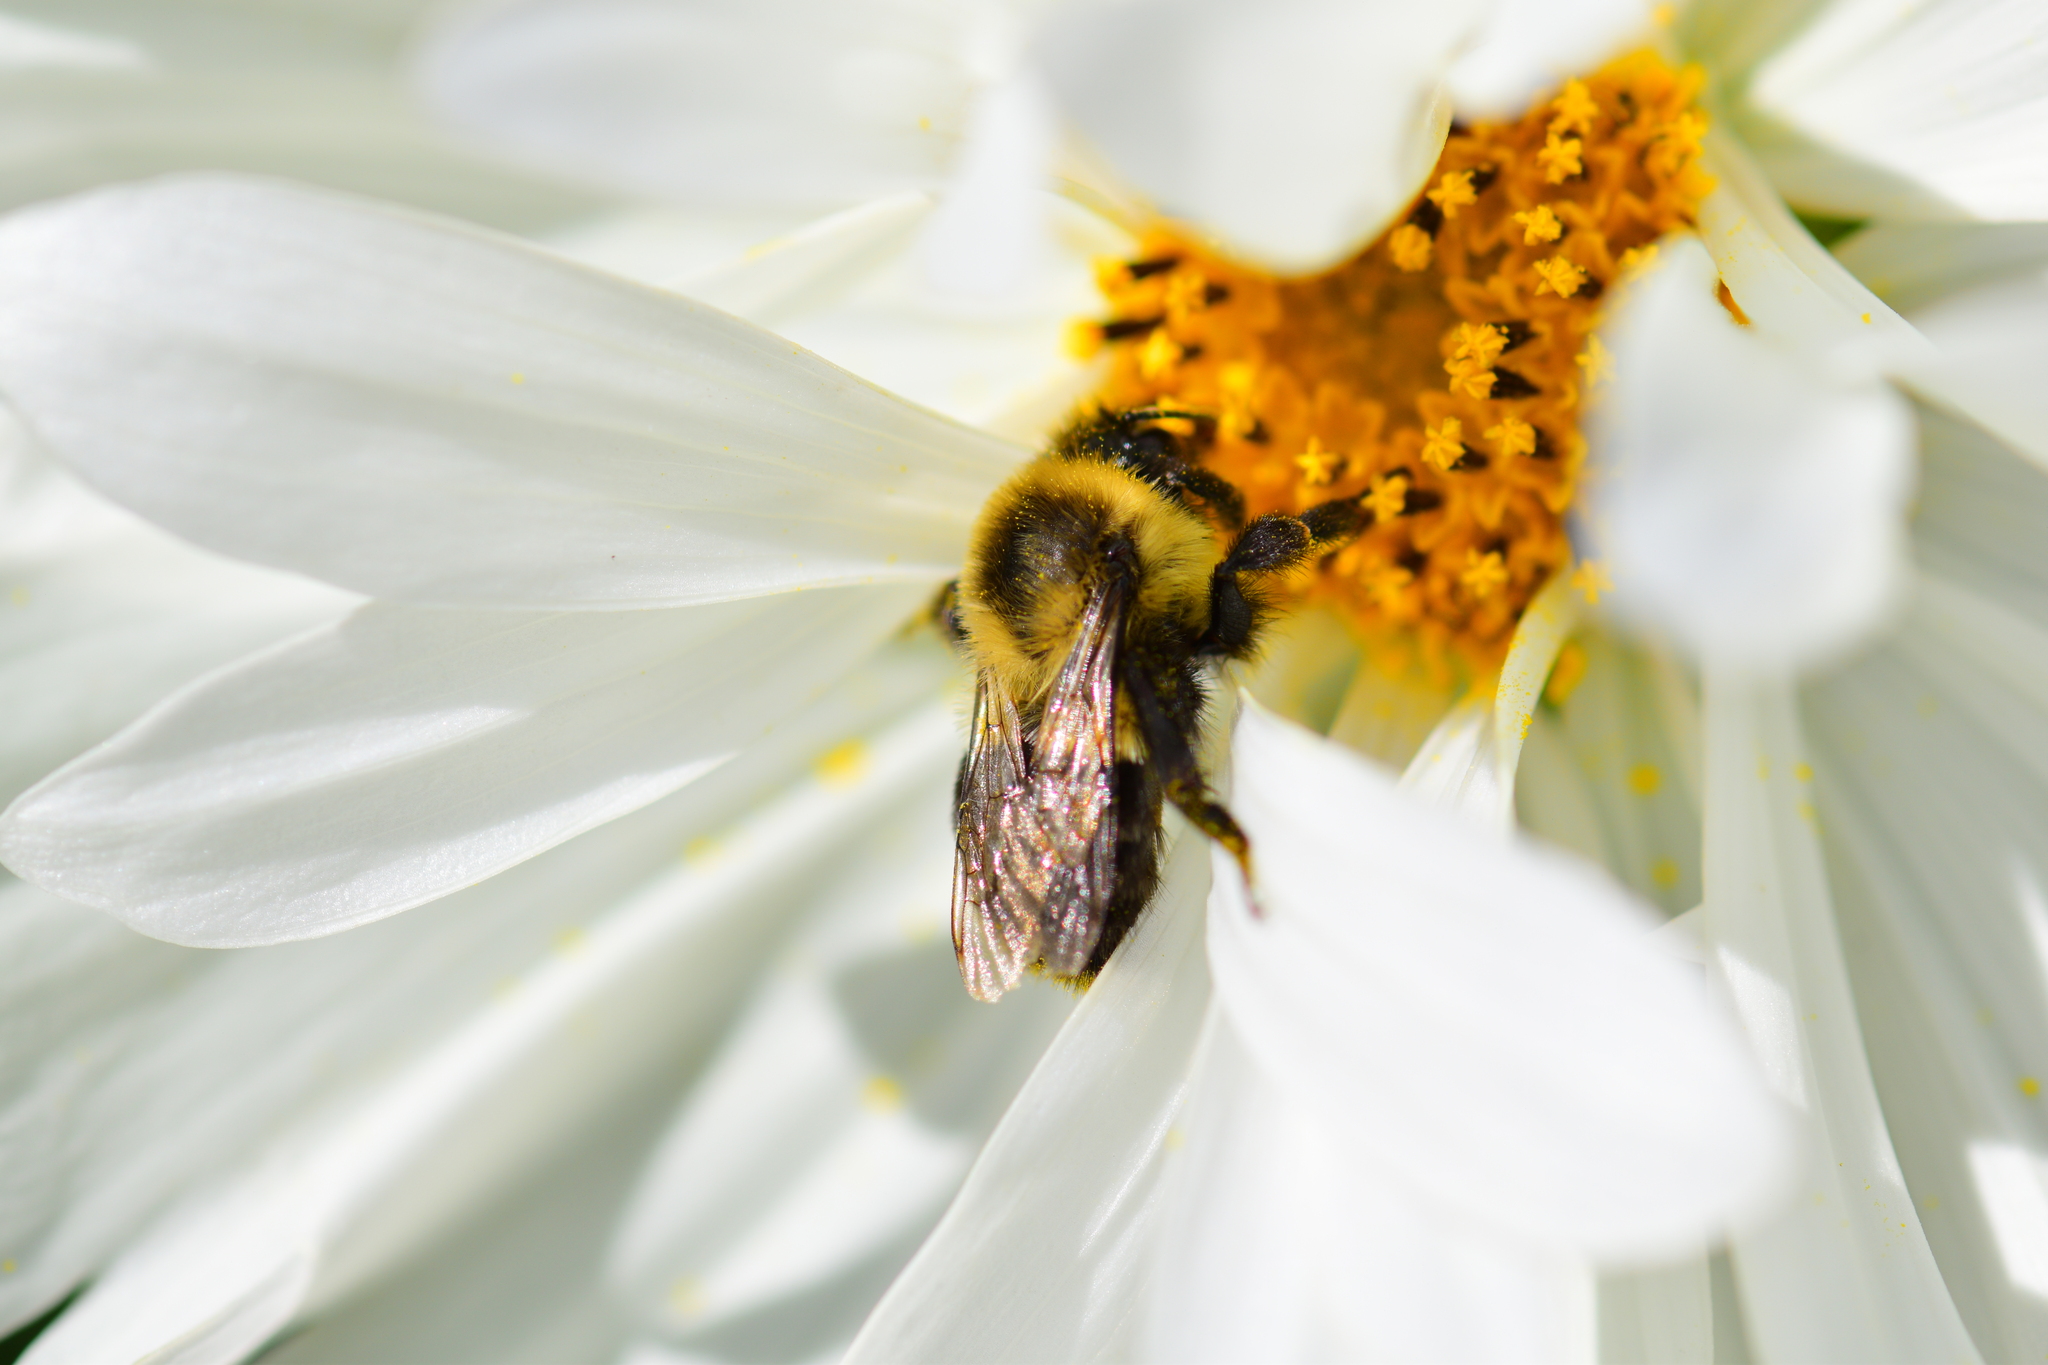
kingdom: Animalia
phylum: Arthropoda
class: Insecta
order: Hymenoptera
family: Apidae
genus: Bombus
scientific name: Bombus impatiens
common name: Common eastern bumble bee
